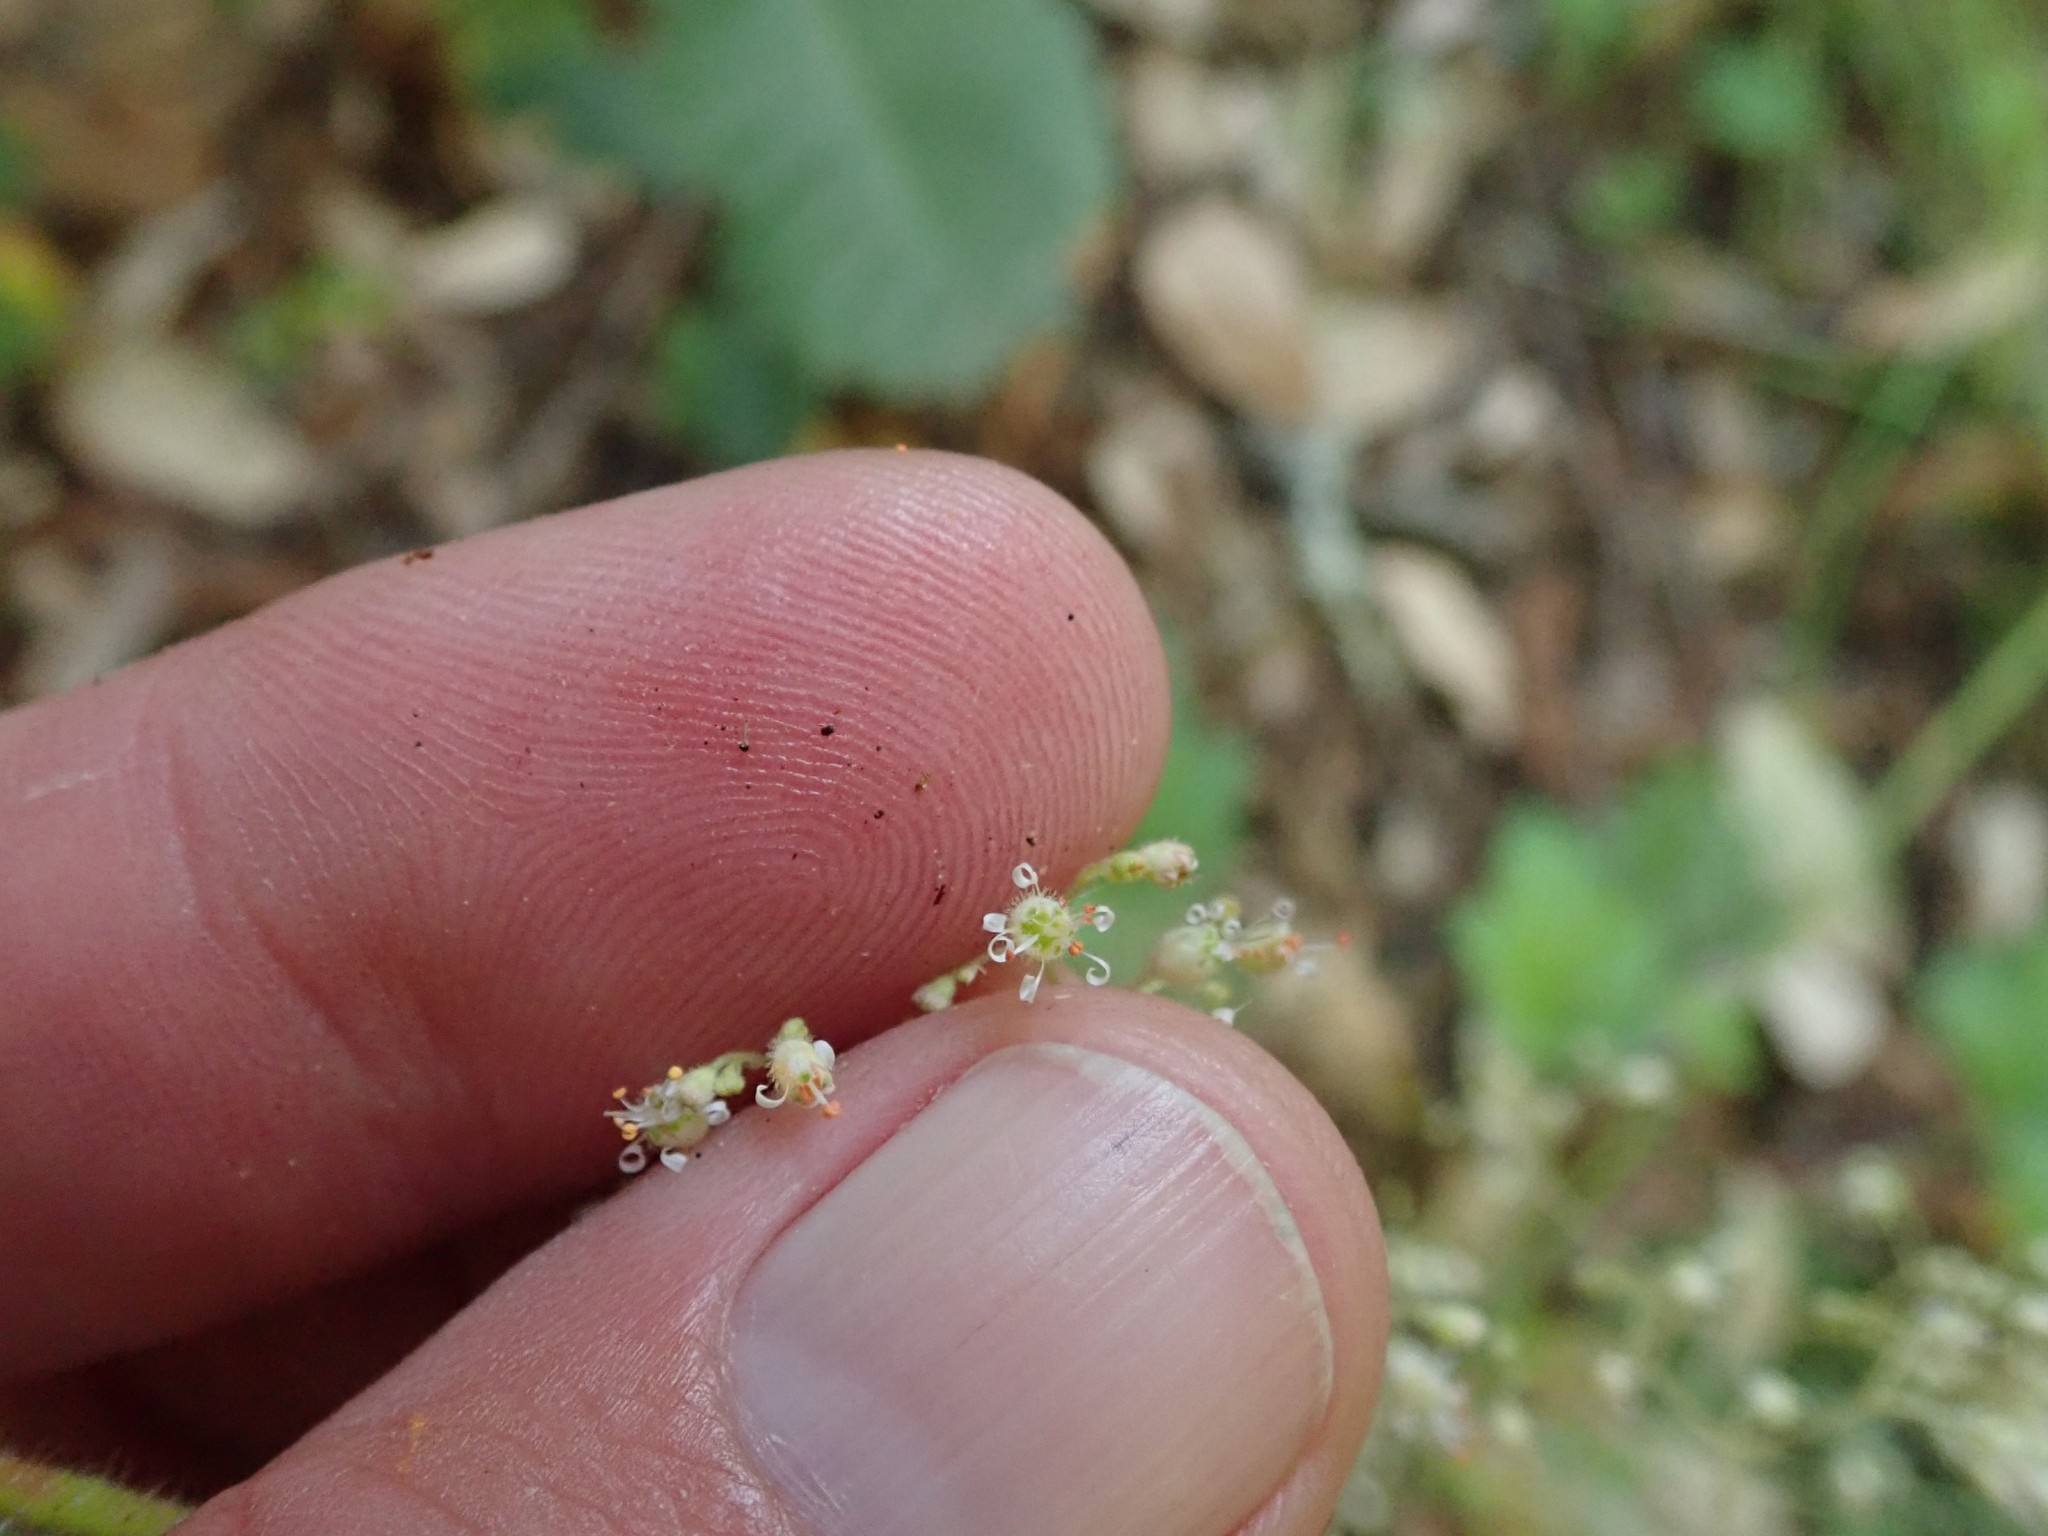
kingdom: Plantae
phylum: Tracheophyta
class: Magnoliopsida
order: Saxifragales
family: Saxifragaceae
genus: Heuchera
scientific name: Heuchera micrantha
